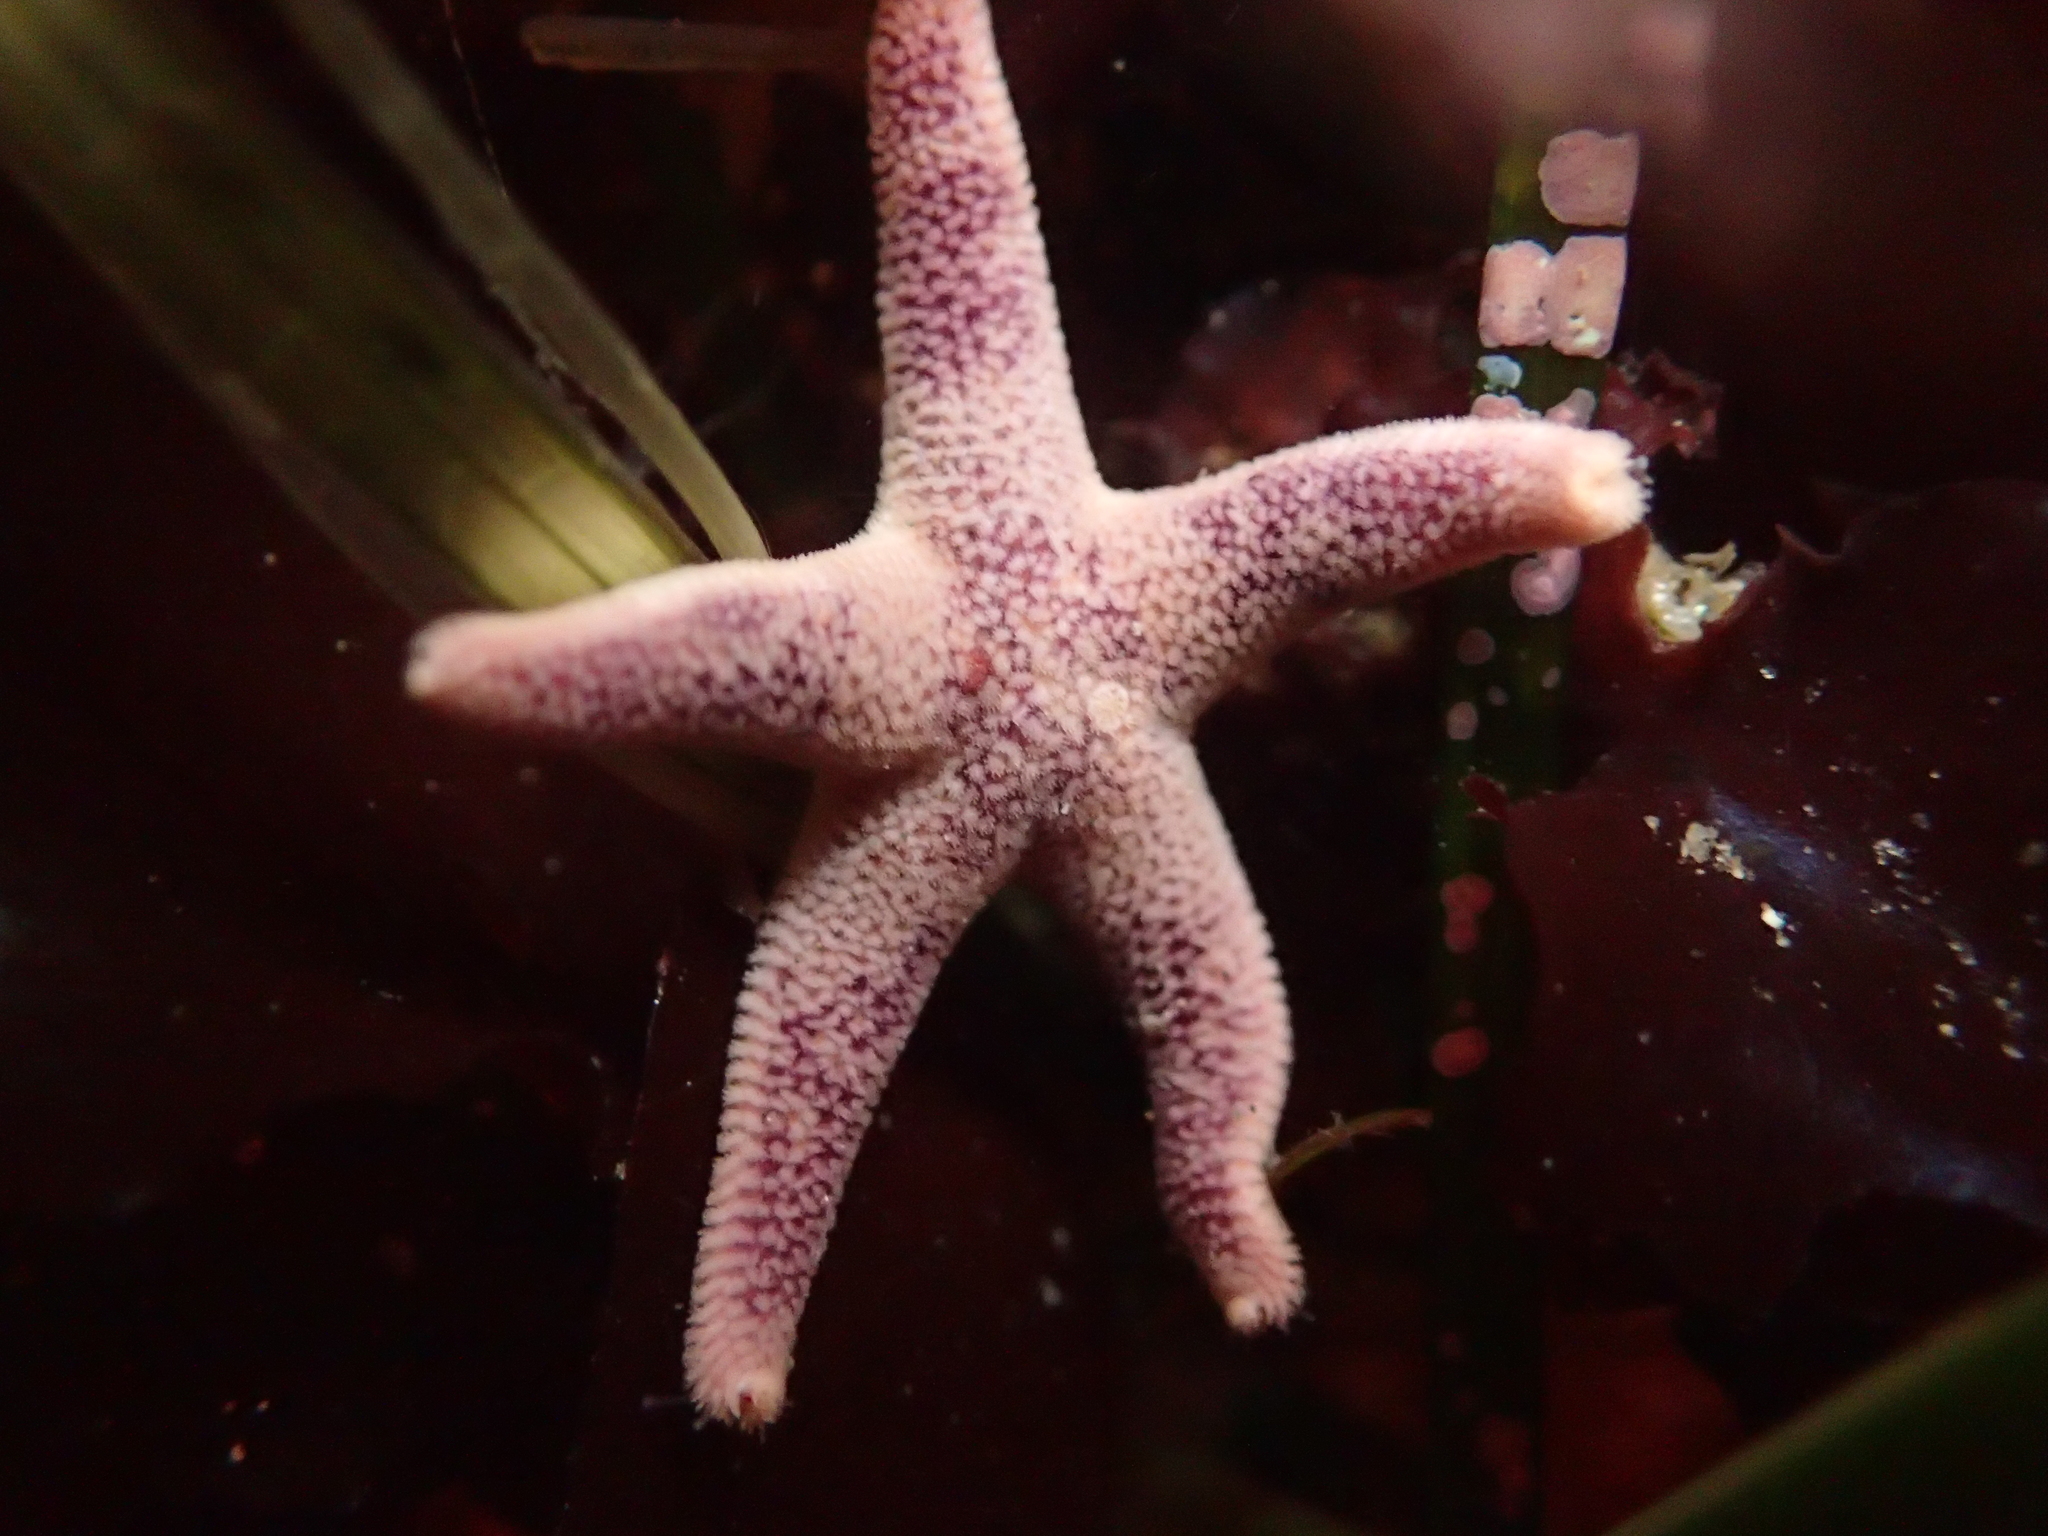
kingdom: Animalia
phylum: Echinodermata
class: Asteroidea
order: Spinulosida
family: Echinasteridae
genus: Henricia
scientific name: Henricia pumila
